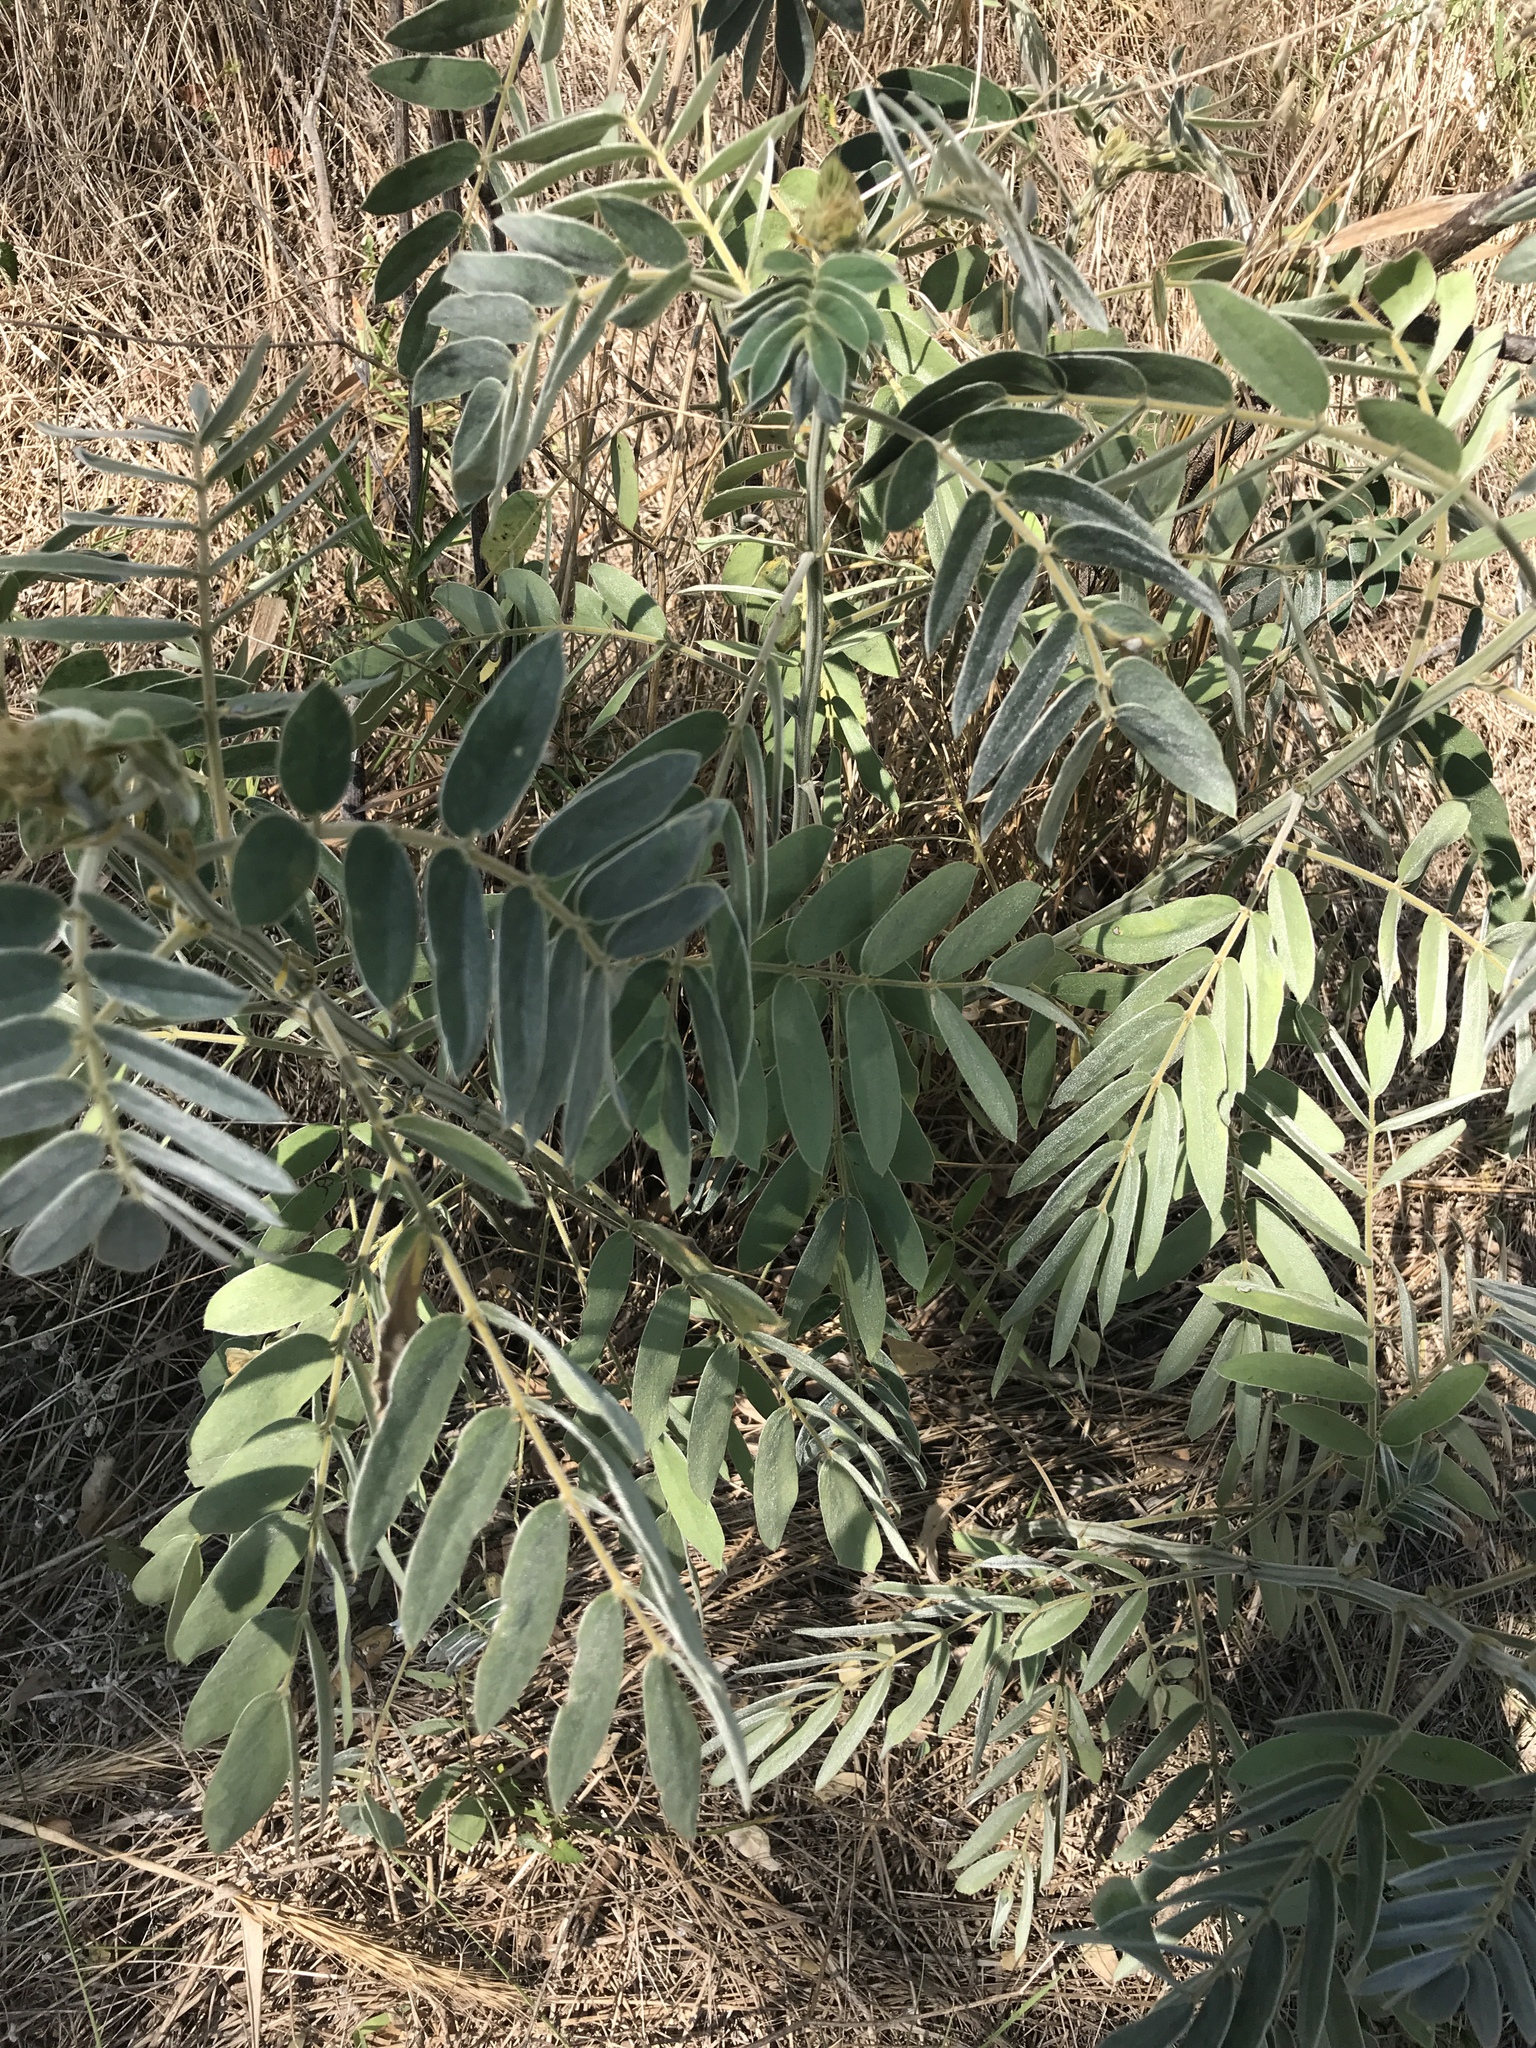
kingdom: Plantae
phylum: Tracheophyta
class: Magnoliopsida
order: Fabales
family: Fabaceae
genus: Senna
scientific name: Senna lindheimeriana
